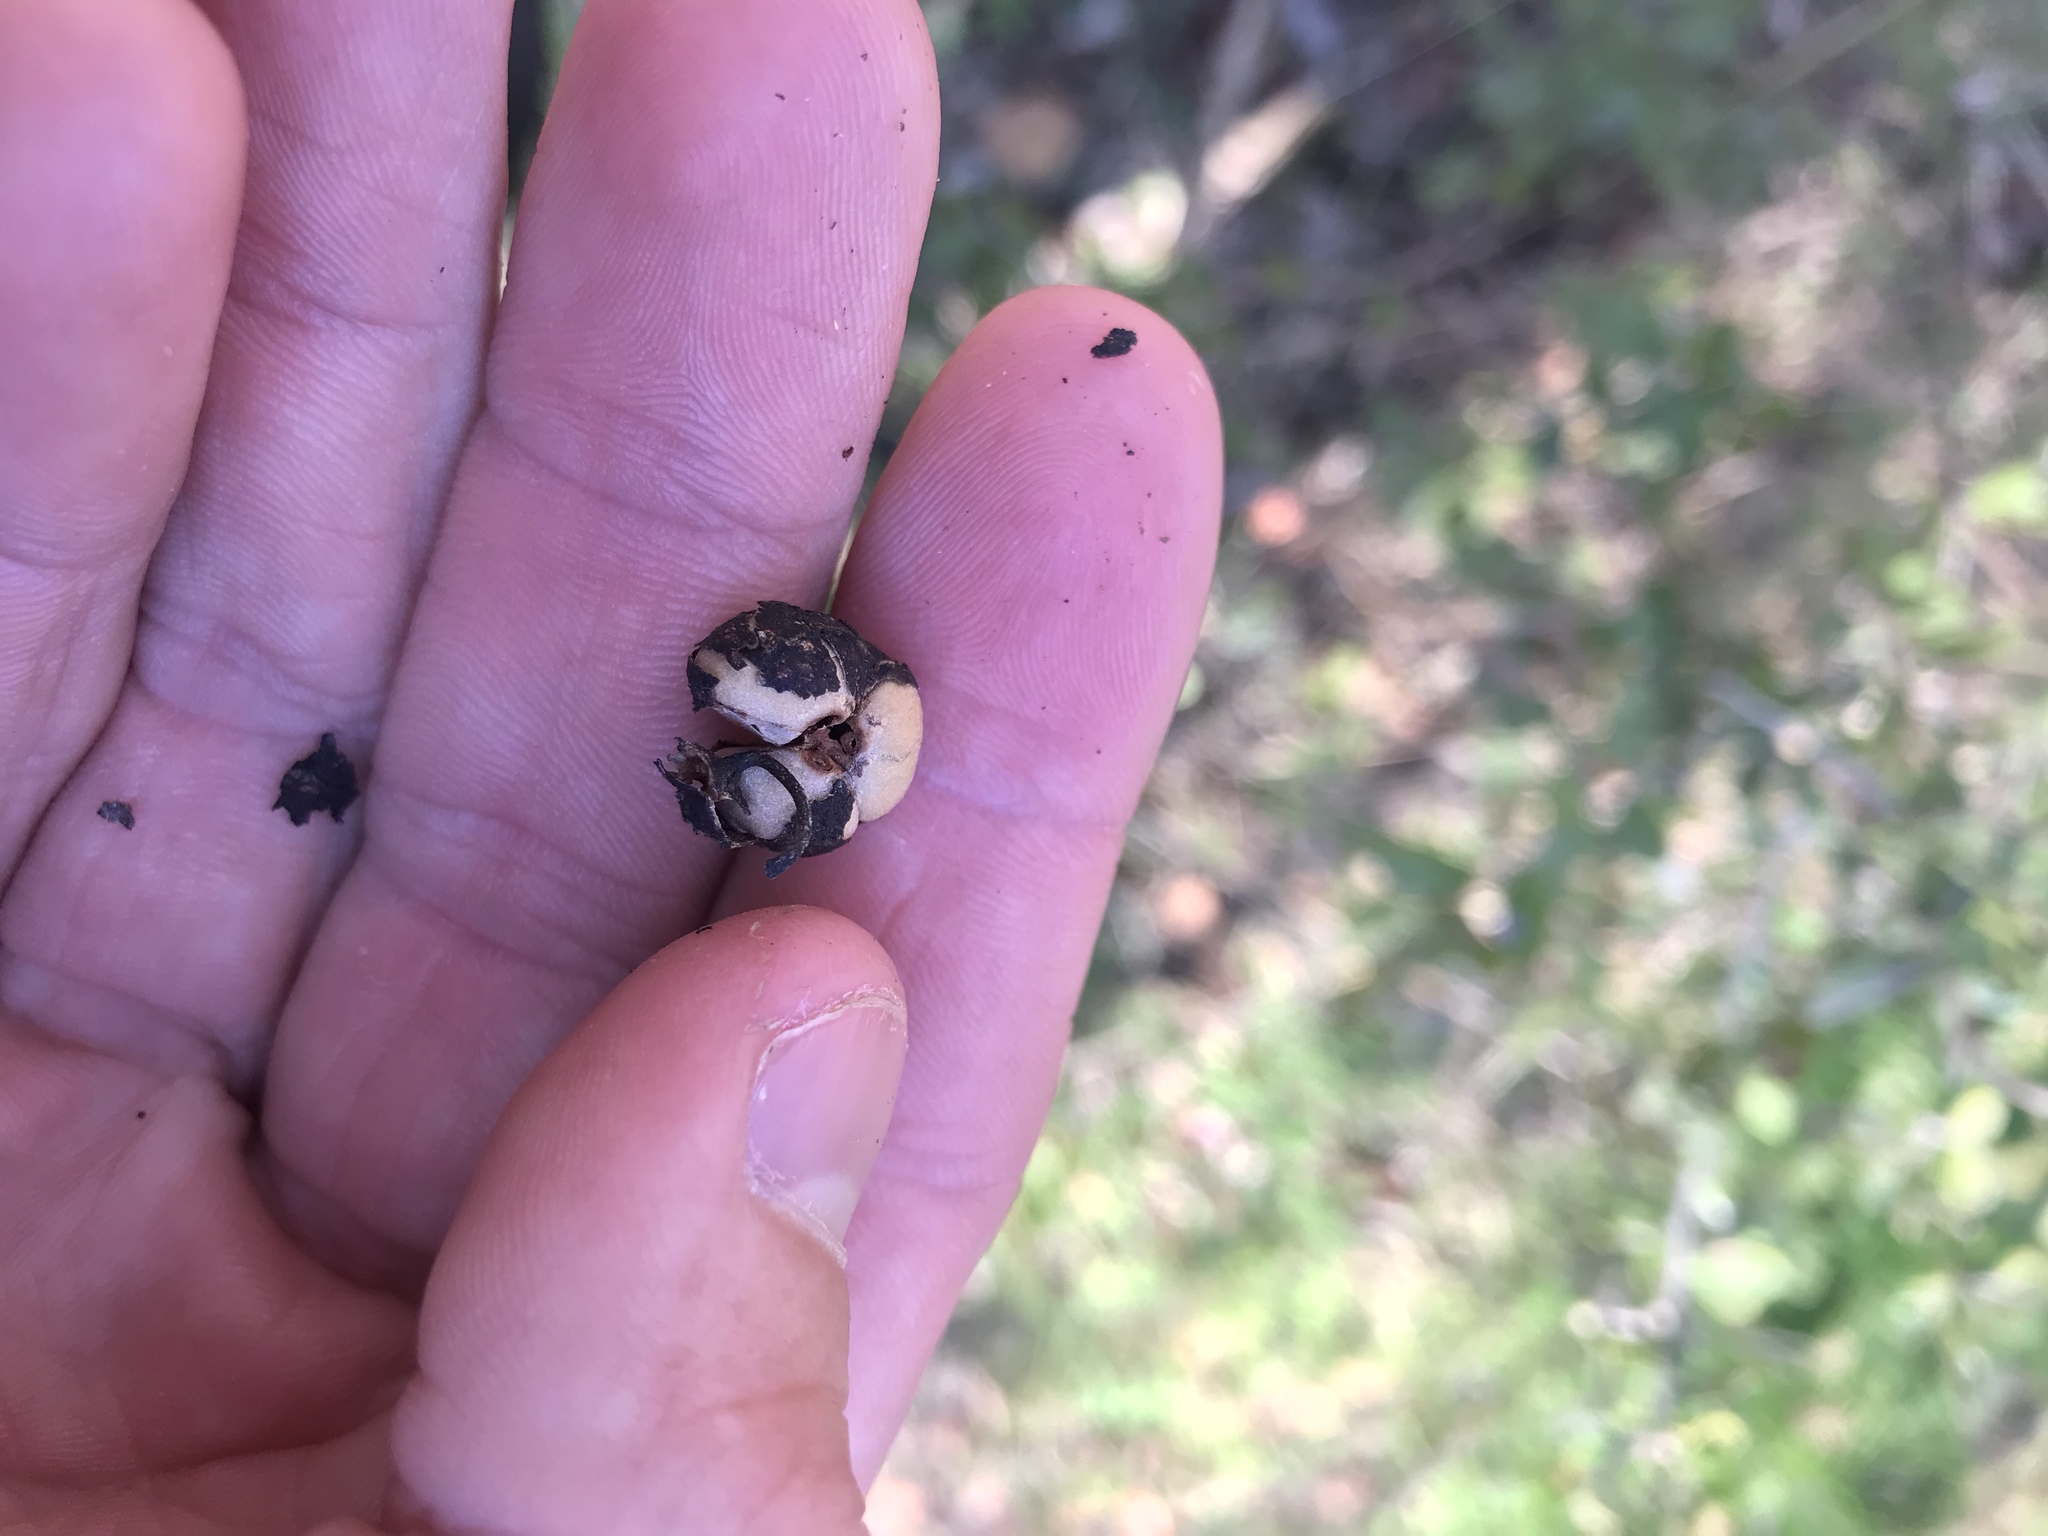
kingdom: Plantae
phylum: Tracheophyta
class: Magnoliopsida
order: Rosales
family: Rhamnaceae
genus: Colubrina
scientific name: Colubrina texensis
